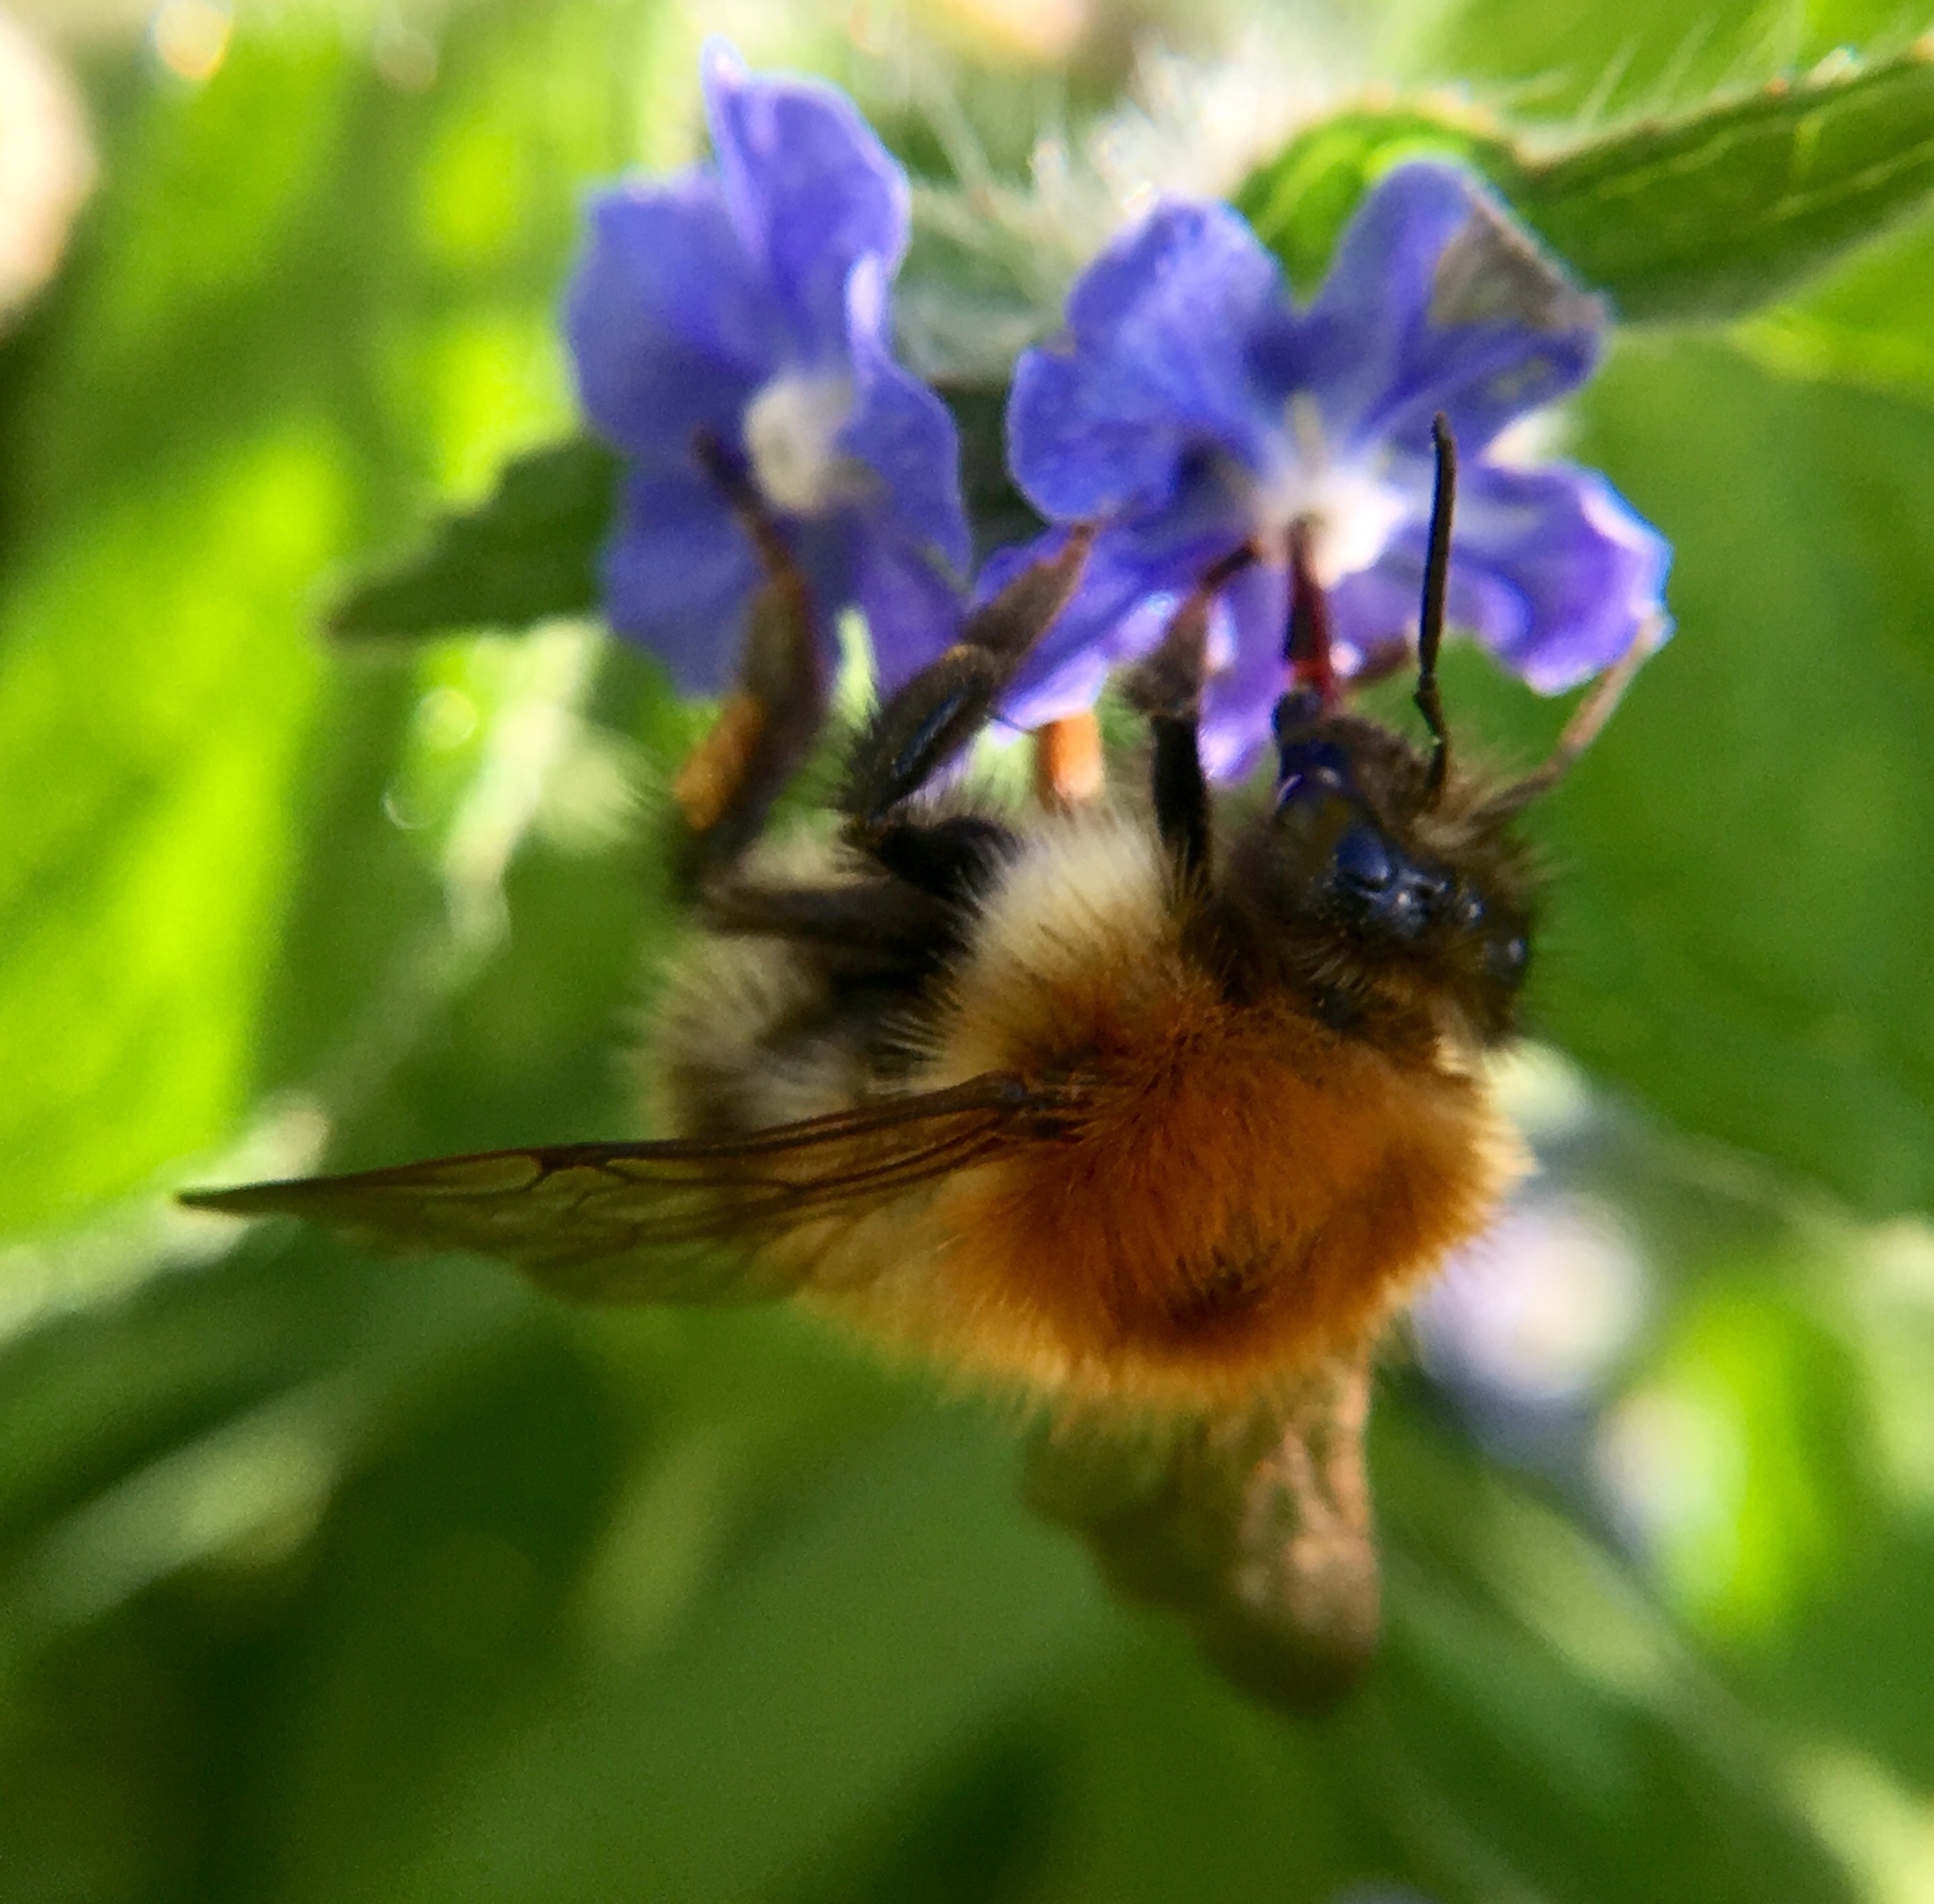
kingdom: Animalia
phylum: Arthropoda
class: Insecta
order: Hymenoptera
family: Apidae
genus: Bombus
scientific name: Bombus pascuorum
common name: Common carder bee
